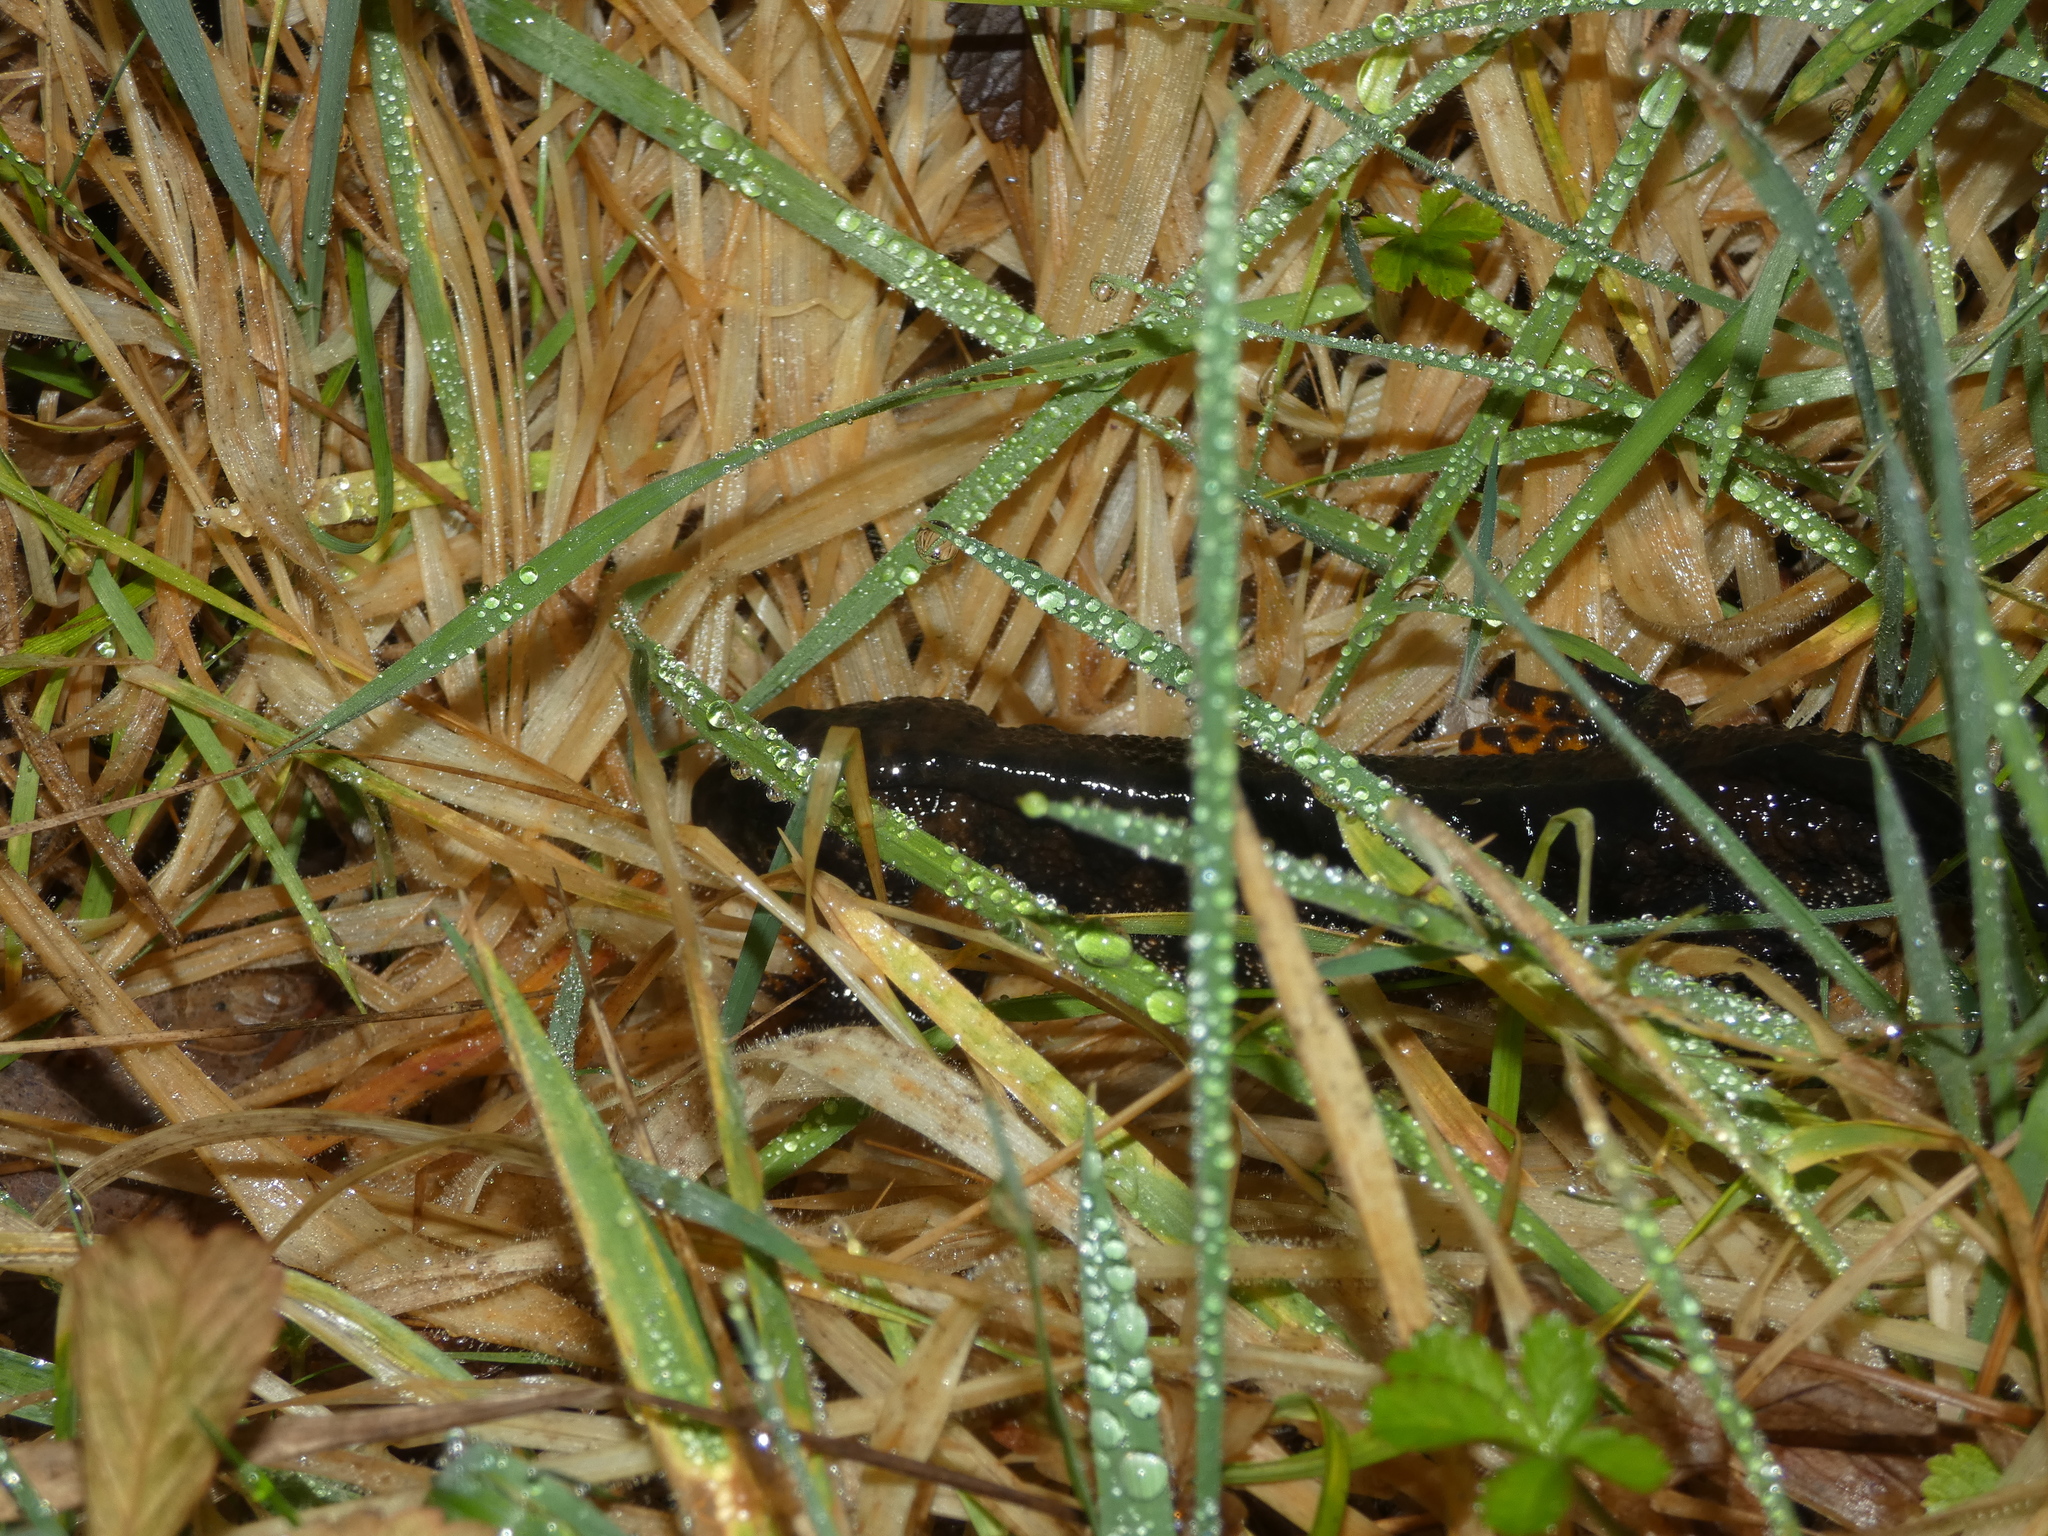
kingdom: Animalia
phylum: Chordata
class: Amphibia
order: Caudata
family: Salamandridae
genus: Triturus
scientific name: Triturus cristatus
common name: Crested newt
